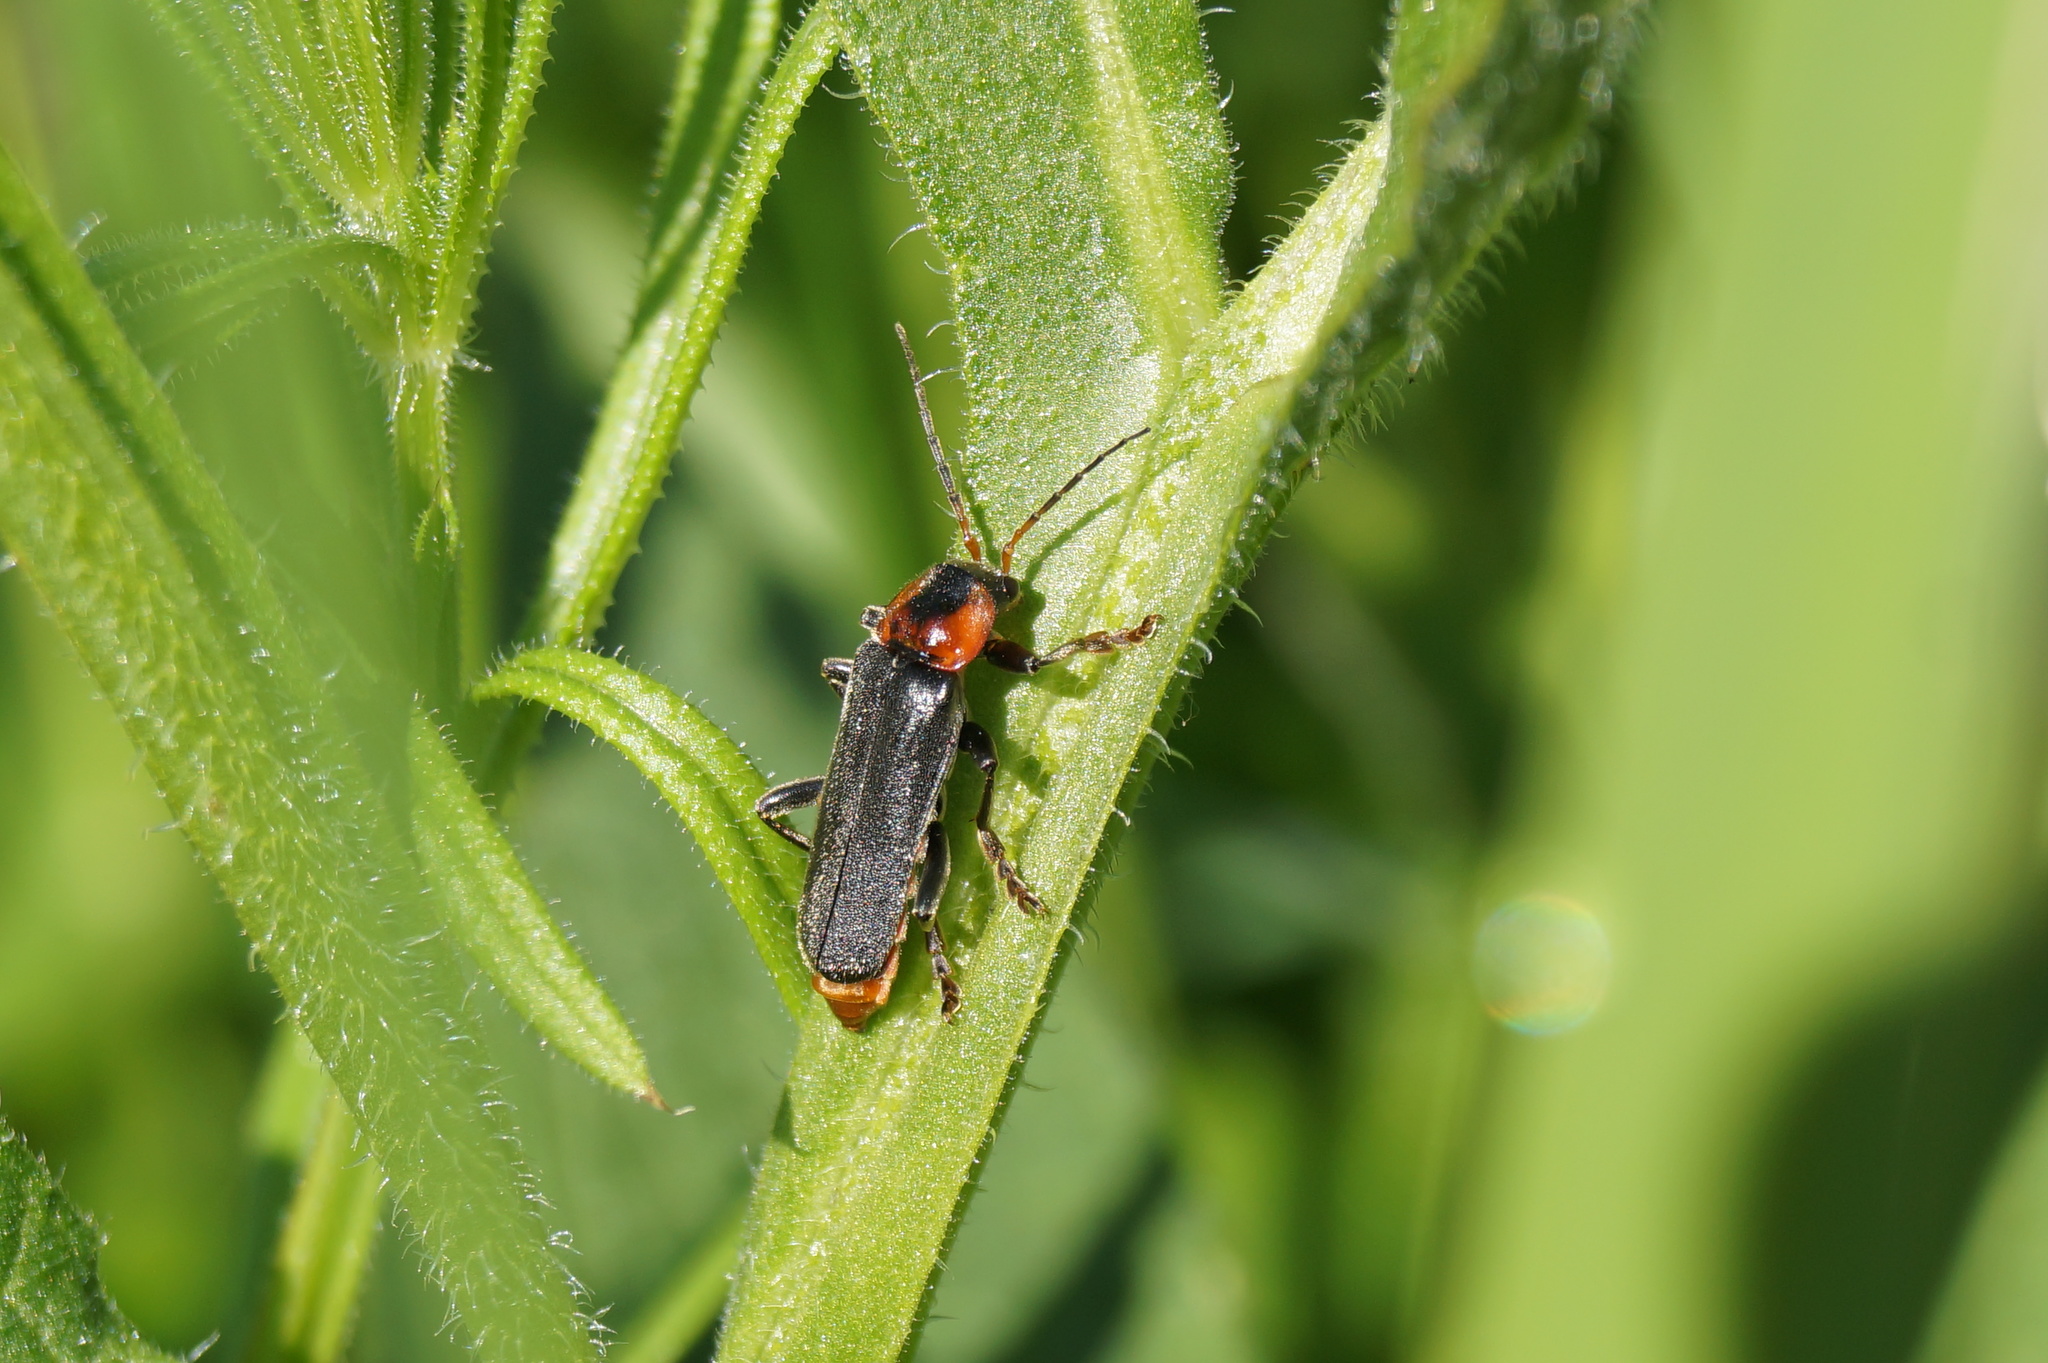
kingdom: Animalia
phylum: Arthropoda
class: Insecta
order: Coleoptera
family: Cantharidae
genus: Cantharis
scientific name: Cantharis fusca
